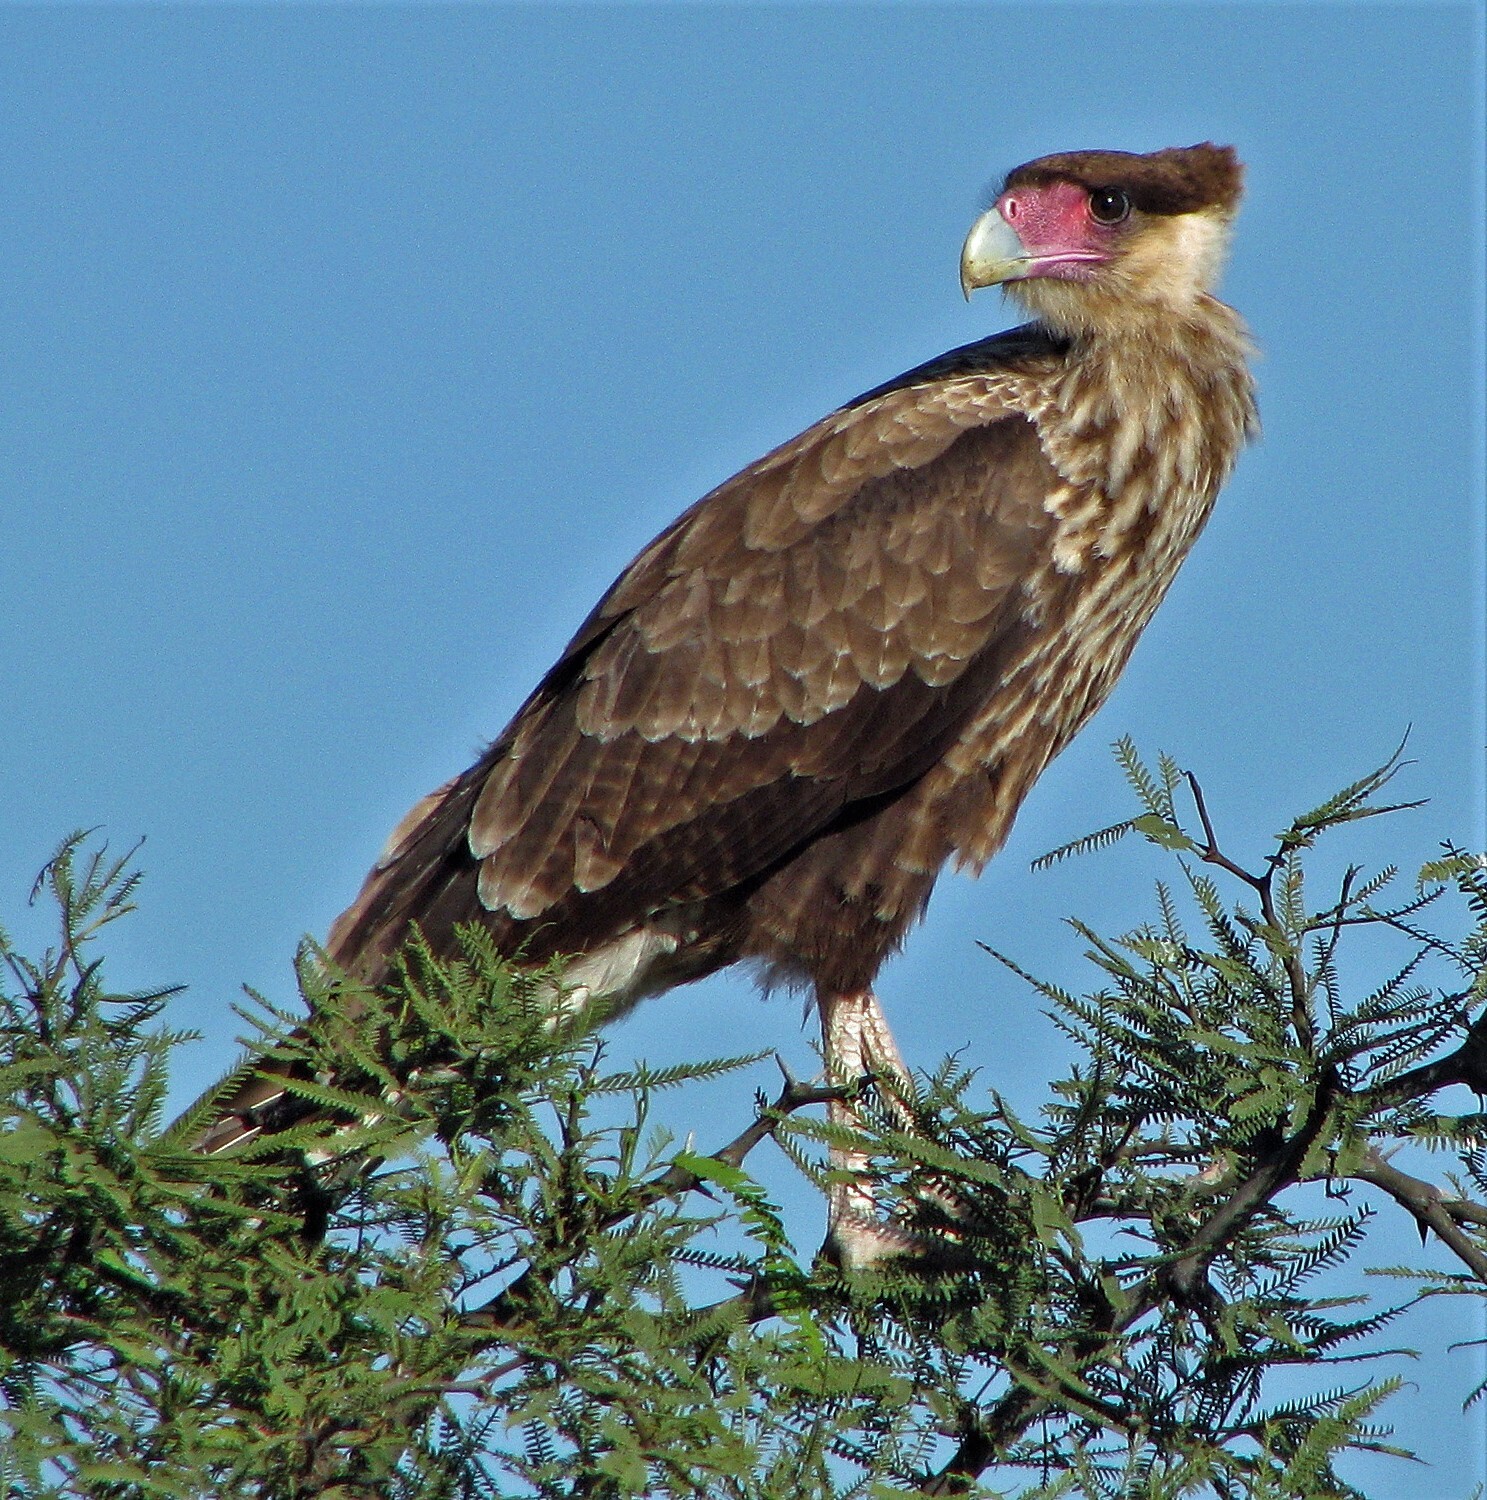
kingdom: Animalia
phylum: Chordata
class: Aves
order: Falconiformes
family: Falconidae
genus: Caracara
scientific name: Caracara plancus
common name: Southern caracara
